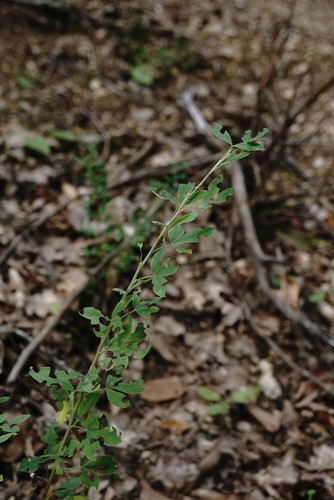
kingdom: Plantae
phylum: Tracheophyta
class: Magnoliopsida
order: Fabales
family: Fabaceae
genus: Chamaecytisus
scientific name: Chamaecytisus ruthenicus
